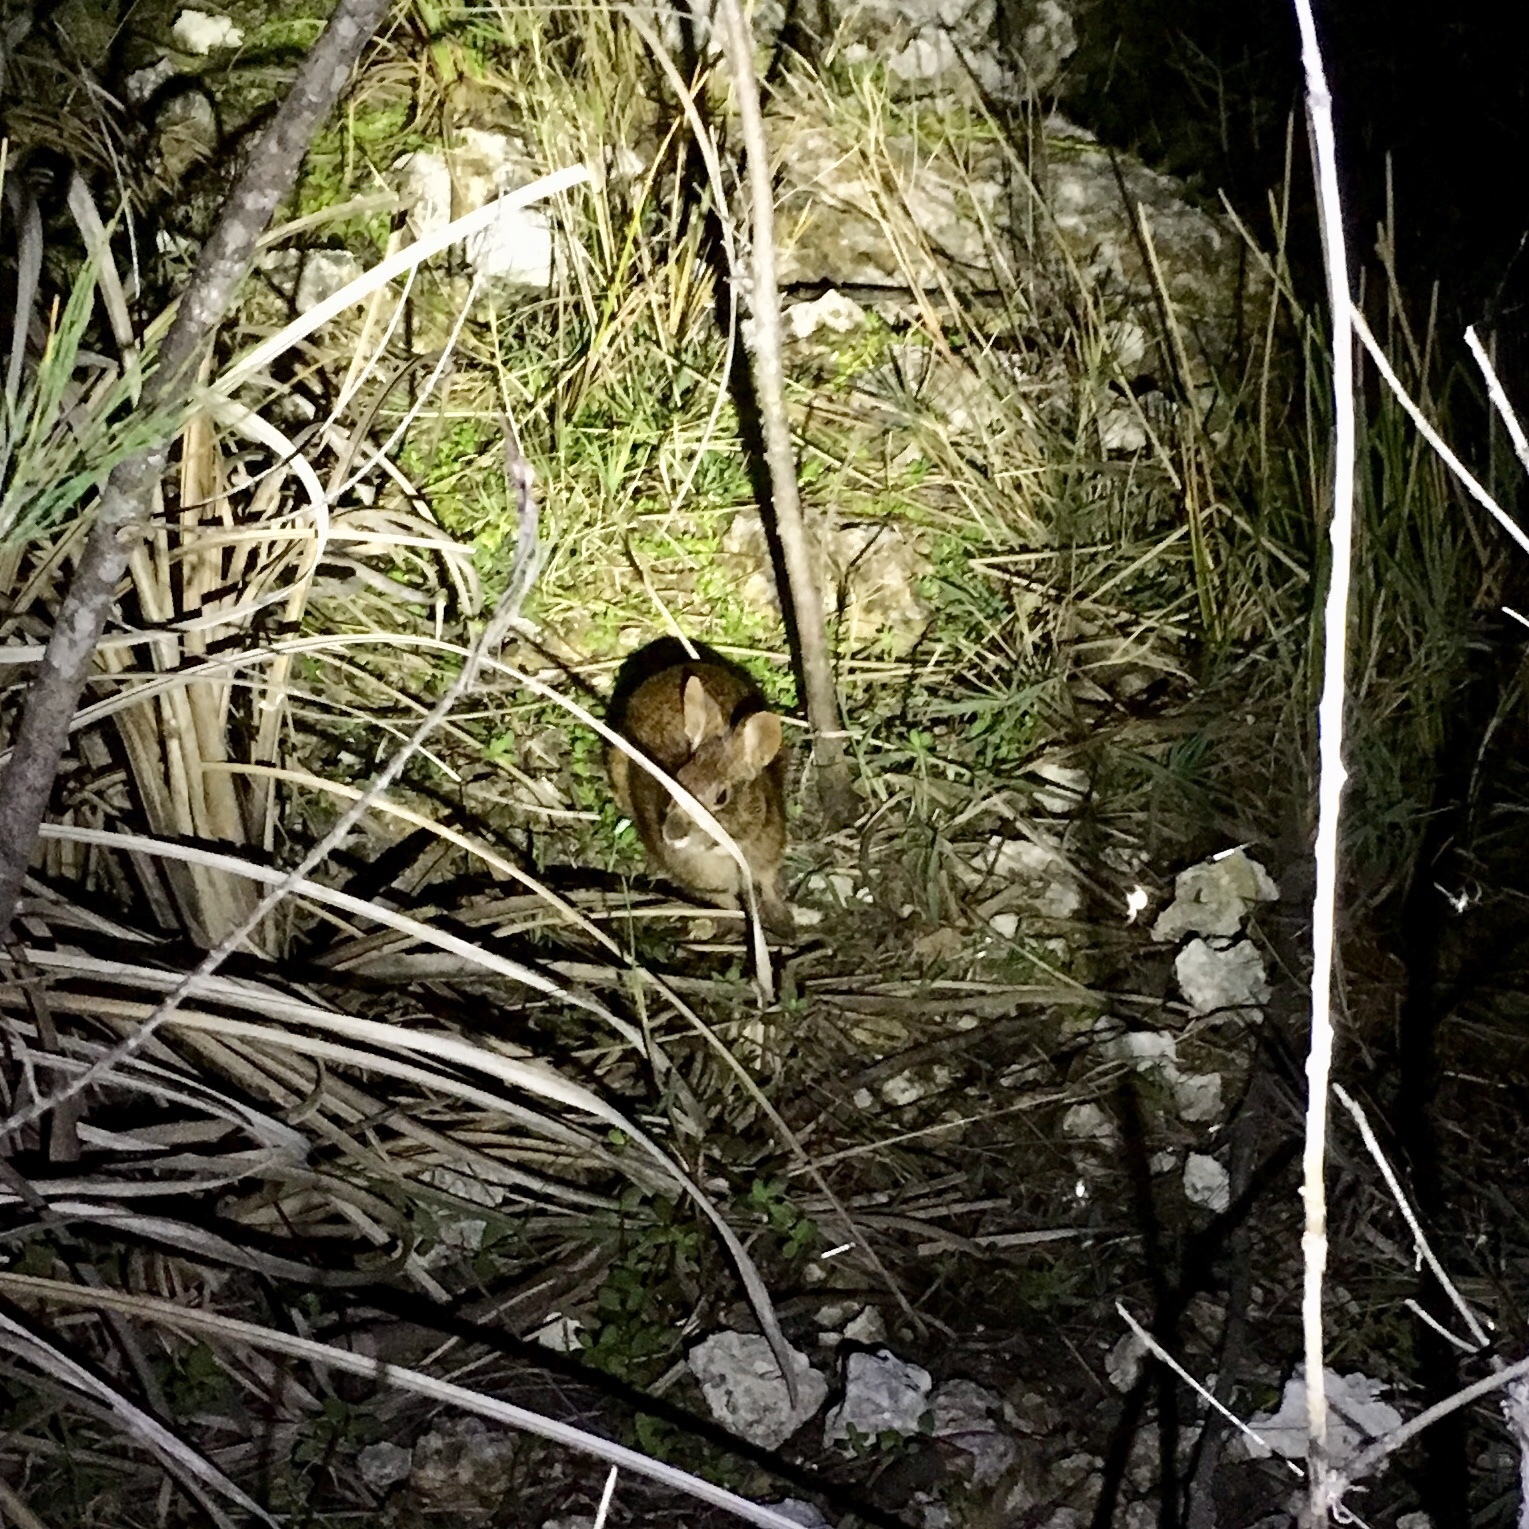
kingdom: Animalia
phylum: Chordata
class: Mammalia
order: Lagomorpha
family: Leporidae
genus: Sylvilagus
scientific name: Sylvilagus palustris
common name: Marsh rabbit
